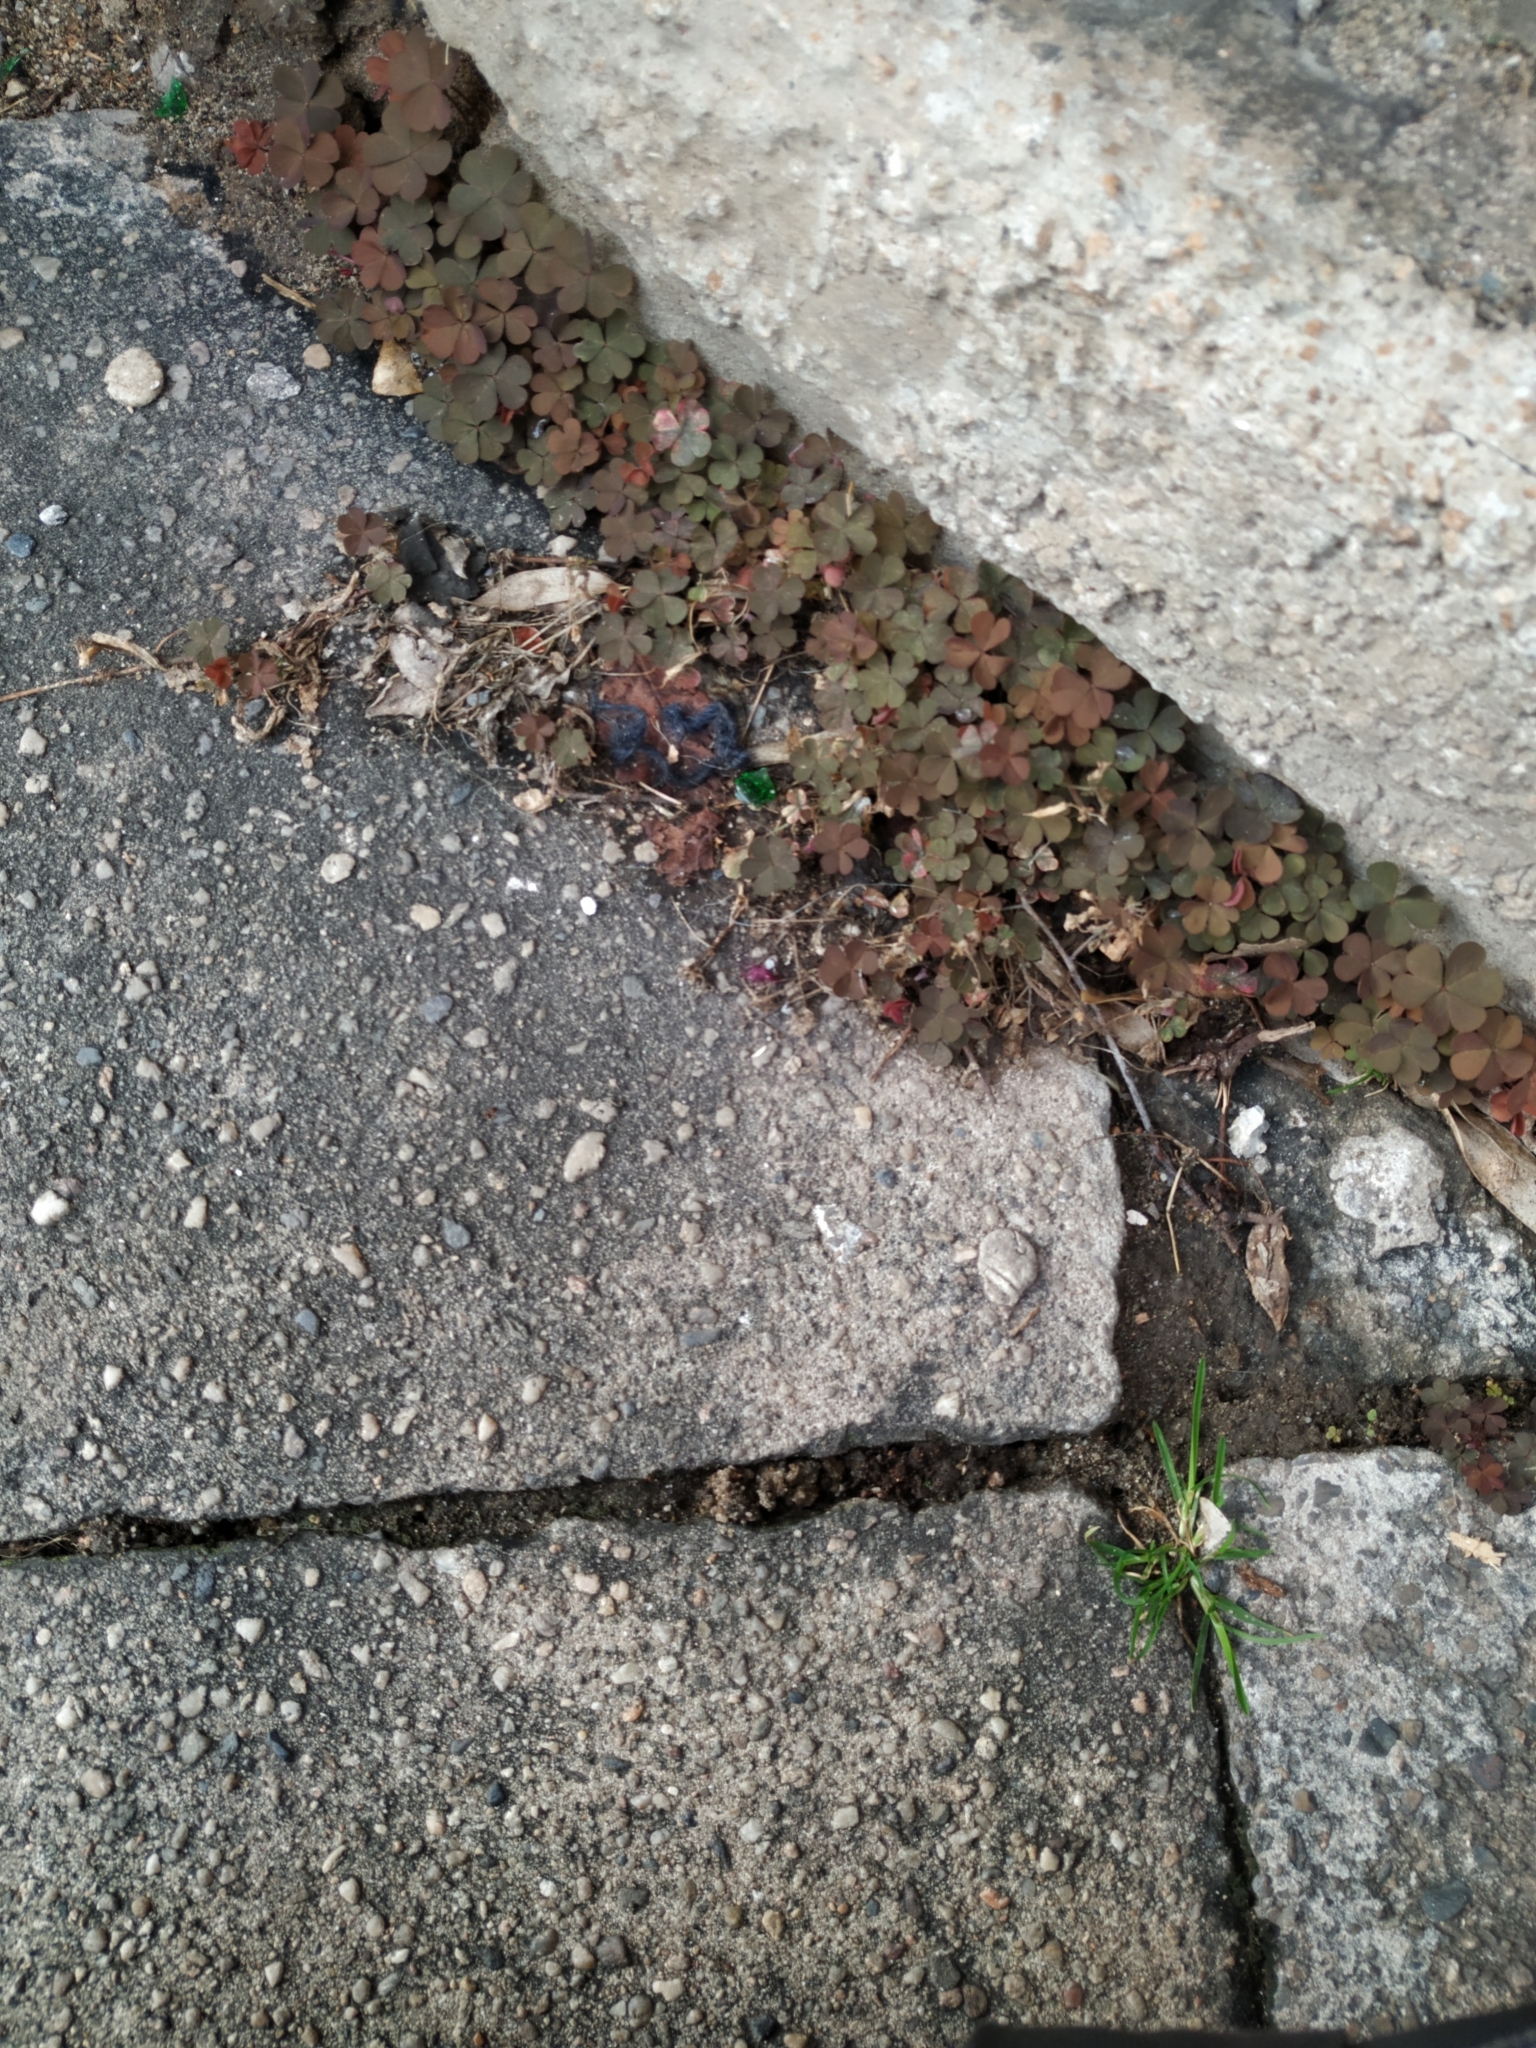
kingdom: Plantae
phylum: Tracheophyta
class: Magnoliopsida
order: Oxalidales
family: Oxalidaceae
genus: Oxalis
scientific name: Oxalis corniculata
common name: Procumbent yellow-sorrel
